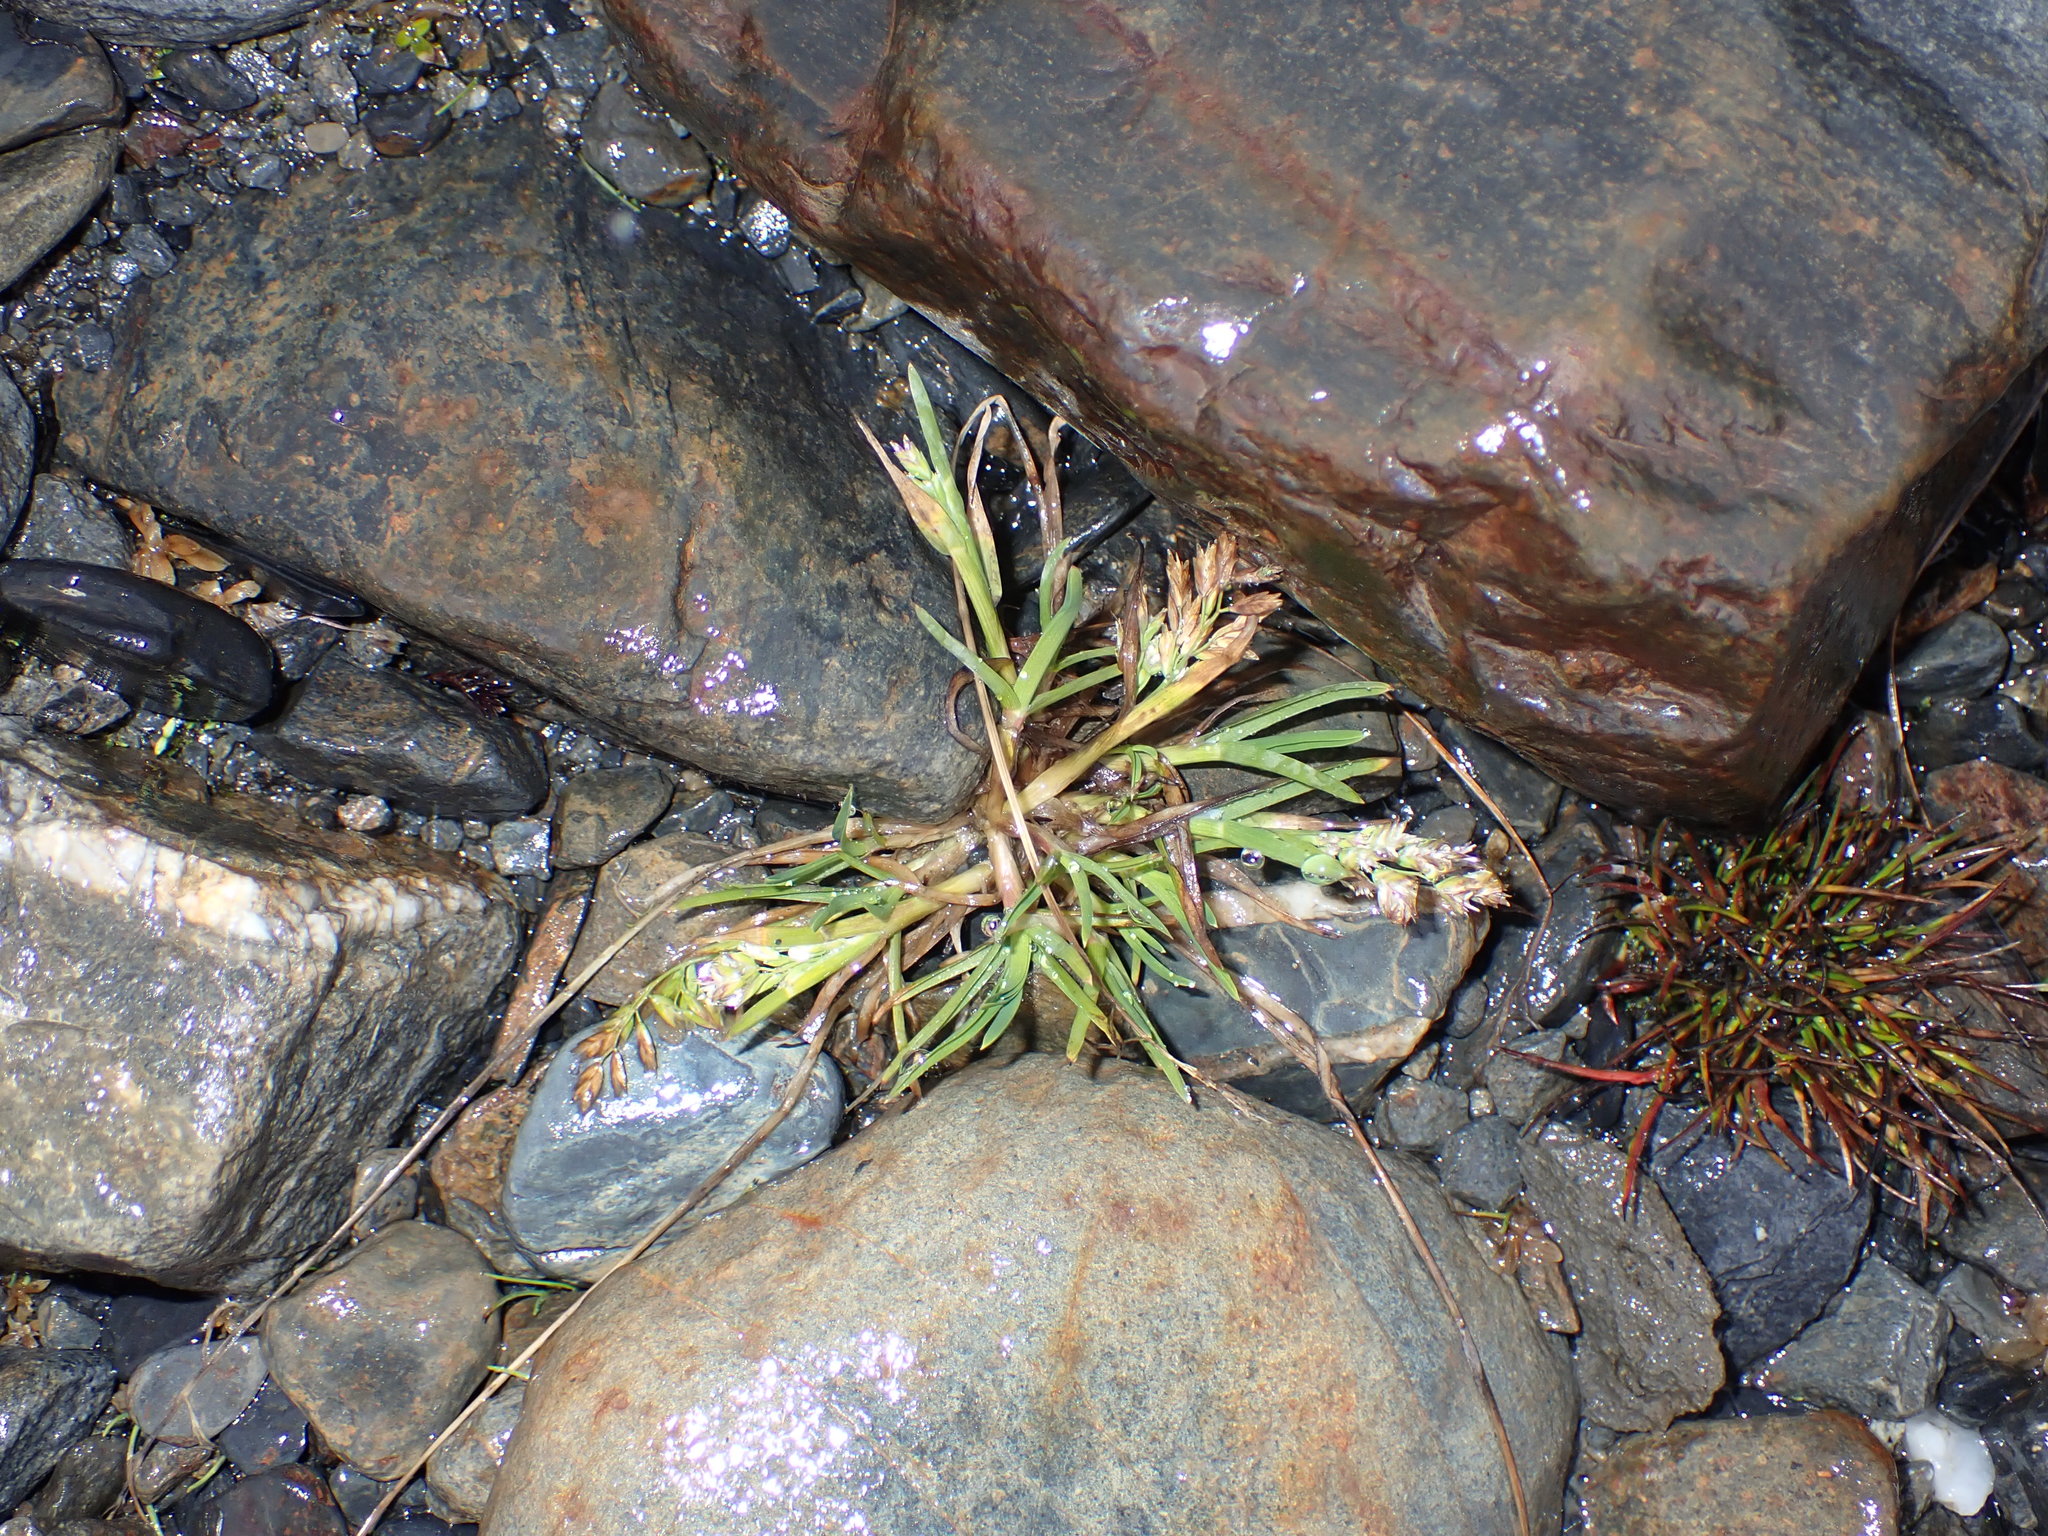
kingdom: Plantae
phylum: Tracheophyta
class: Liliopsida
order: Poales
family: Poaceae
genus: Poa
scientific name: Poa annua
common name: Annual bluegrass
